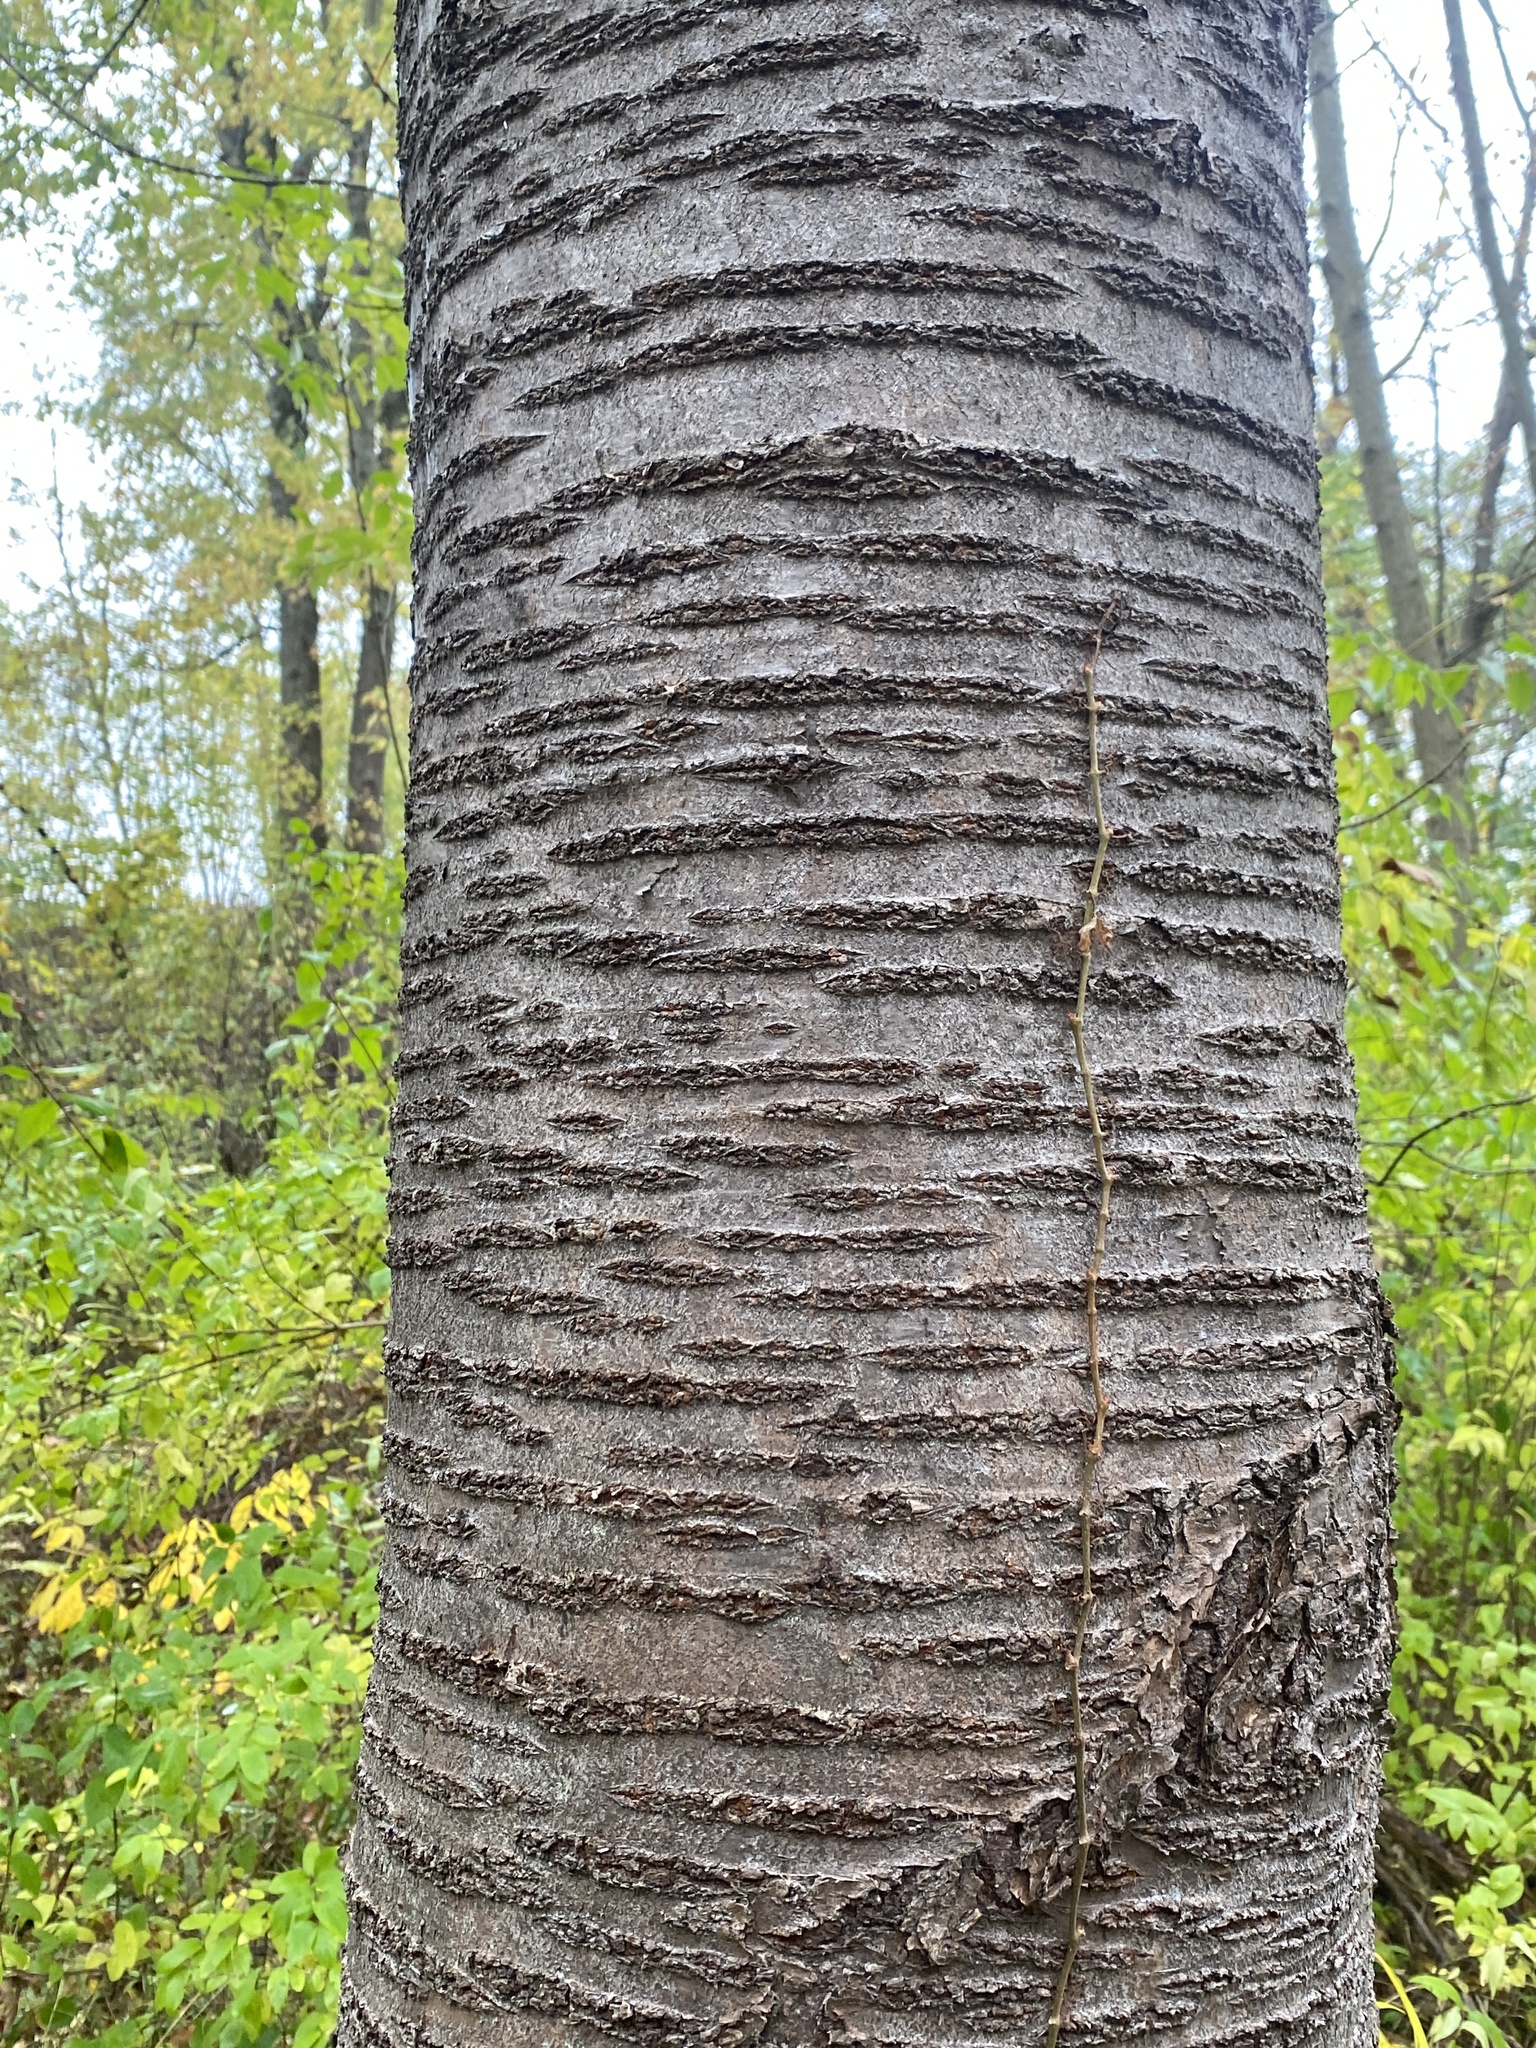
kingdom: Plantae
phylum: Tracheophyta
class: Magnoliopsida
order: Rosales
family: Rosaceae
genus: Prunus
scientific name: Prunus avium
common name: Sweet cherry
